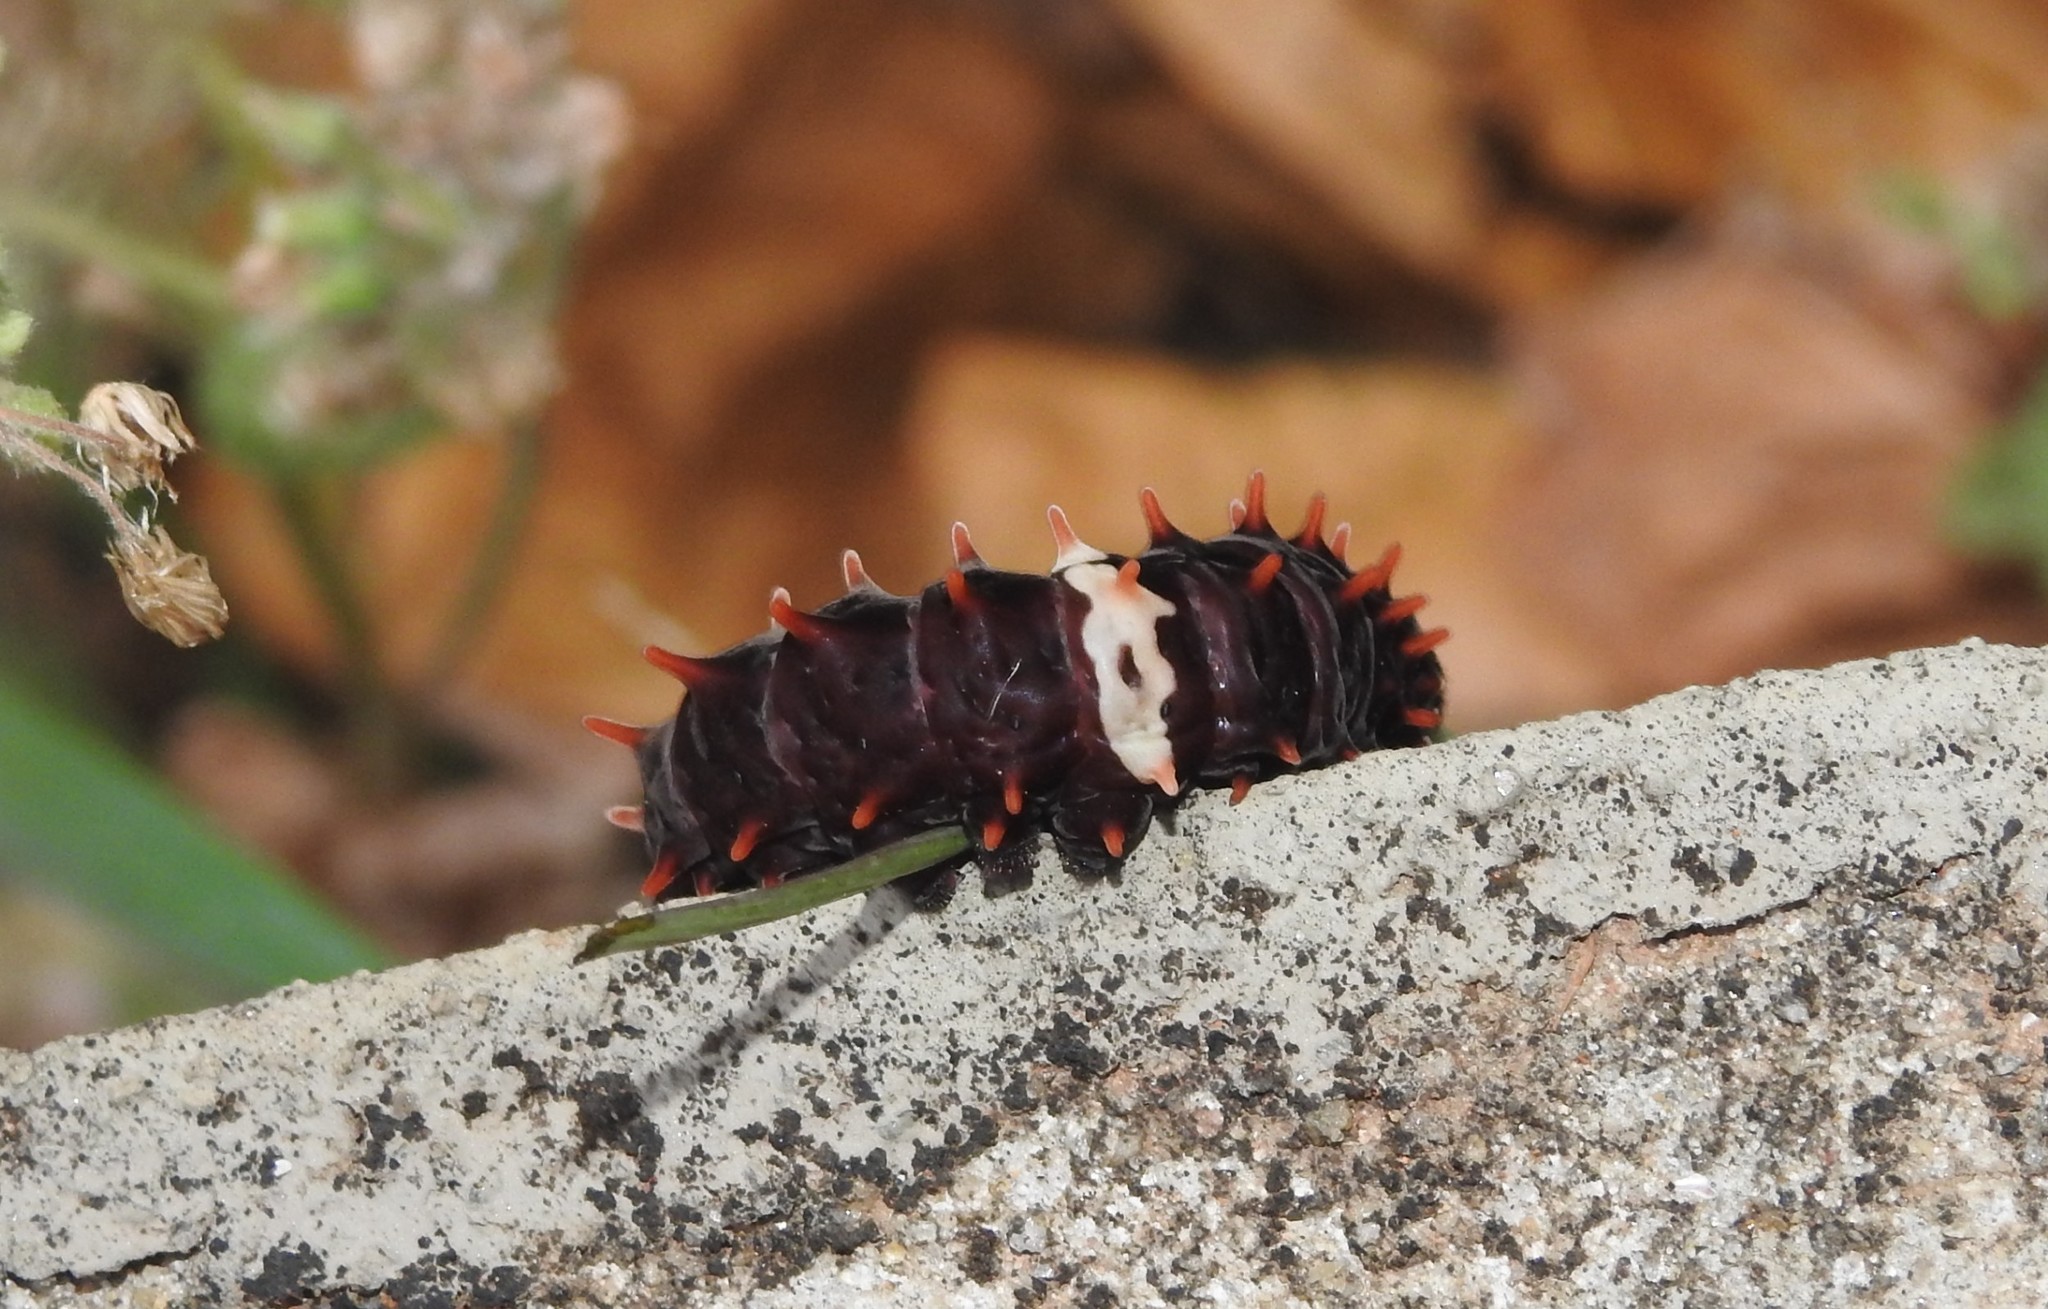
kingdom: Animalia
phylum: Arthropoda
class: Insecta
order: Lepidoptera
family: Papilionidae
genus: Pachliopta
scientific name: Pachliopta aristolochiae
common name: Common rose
